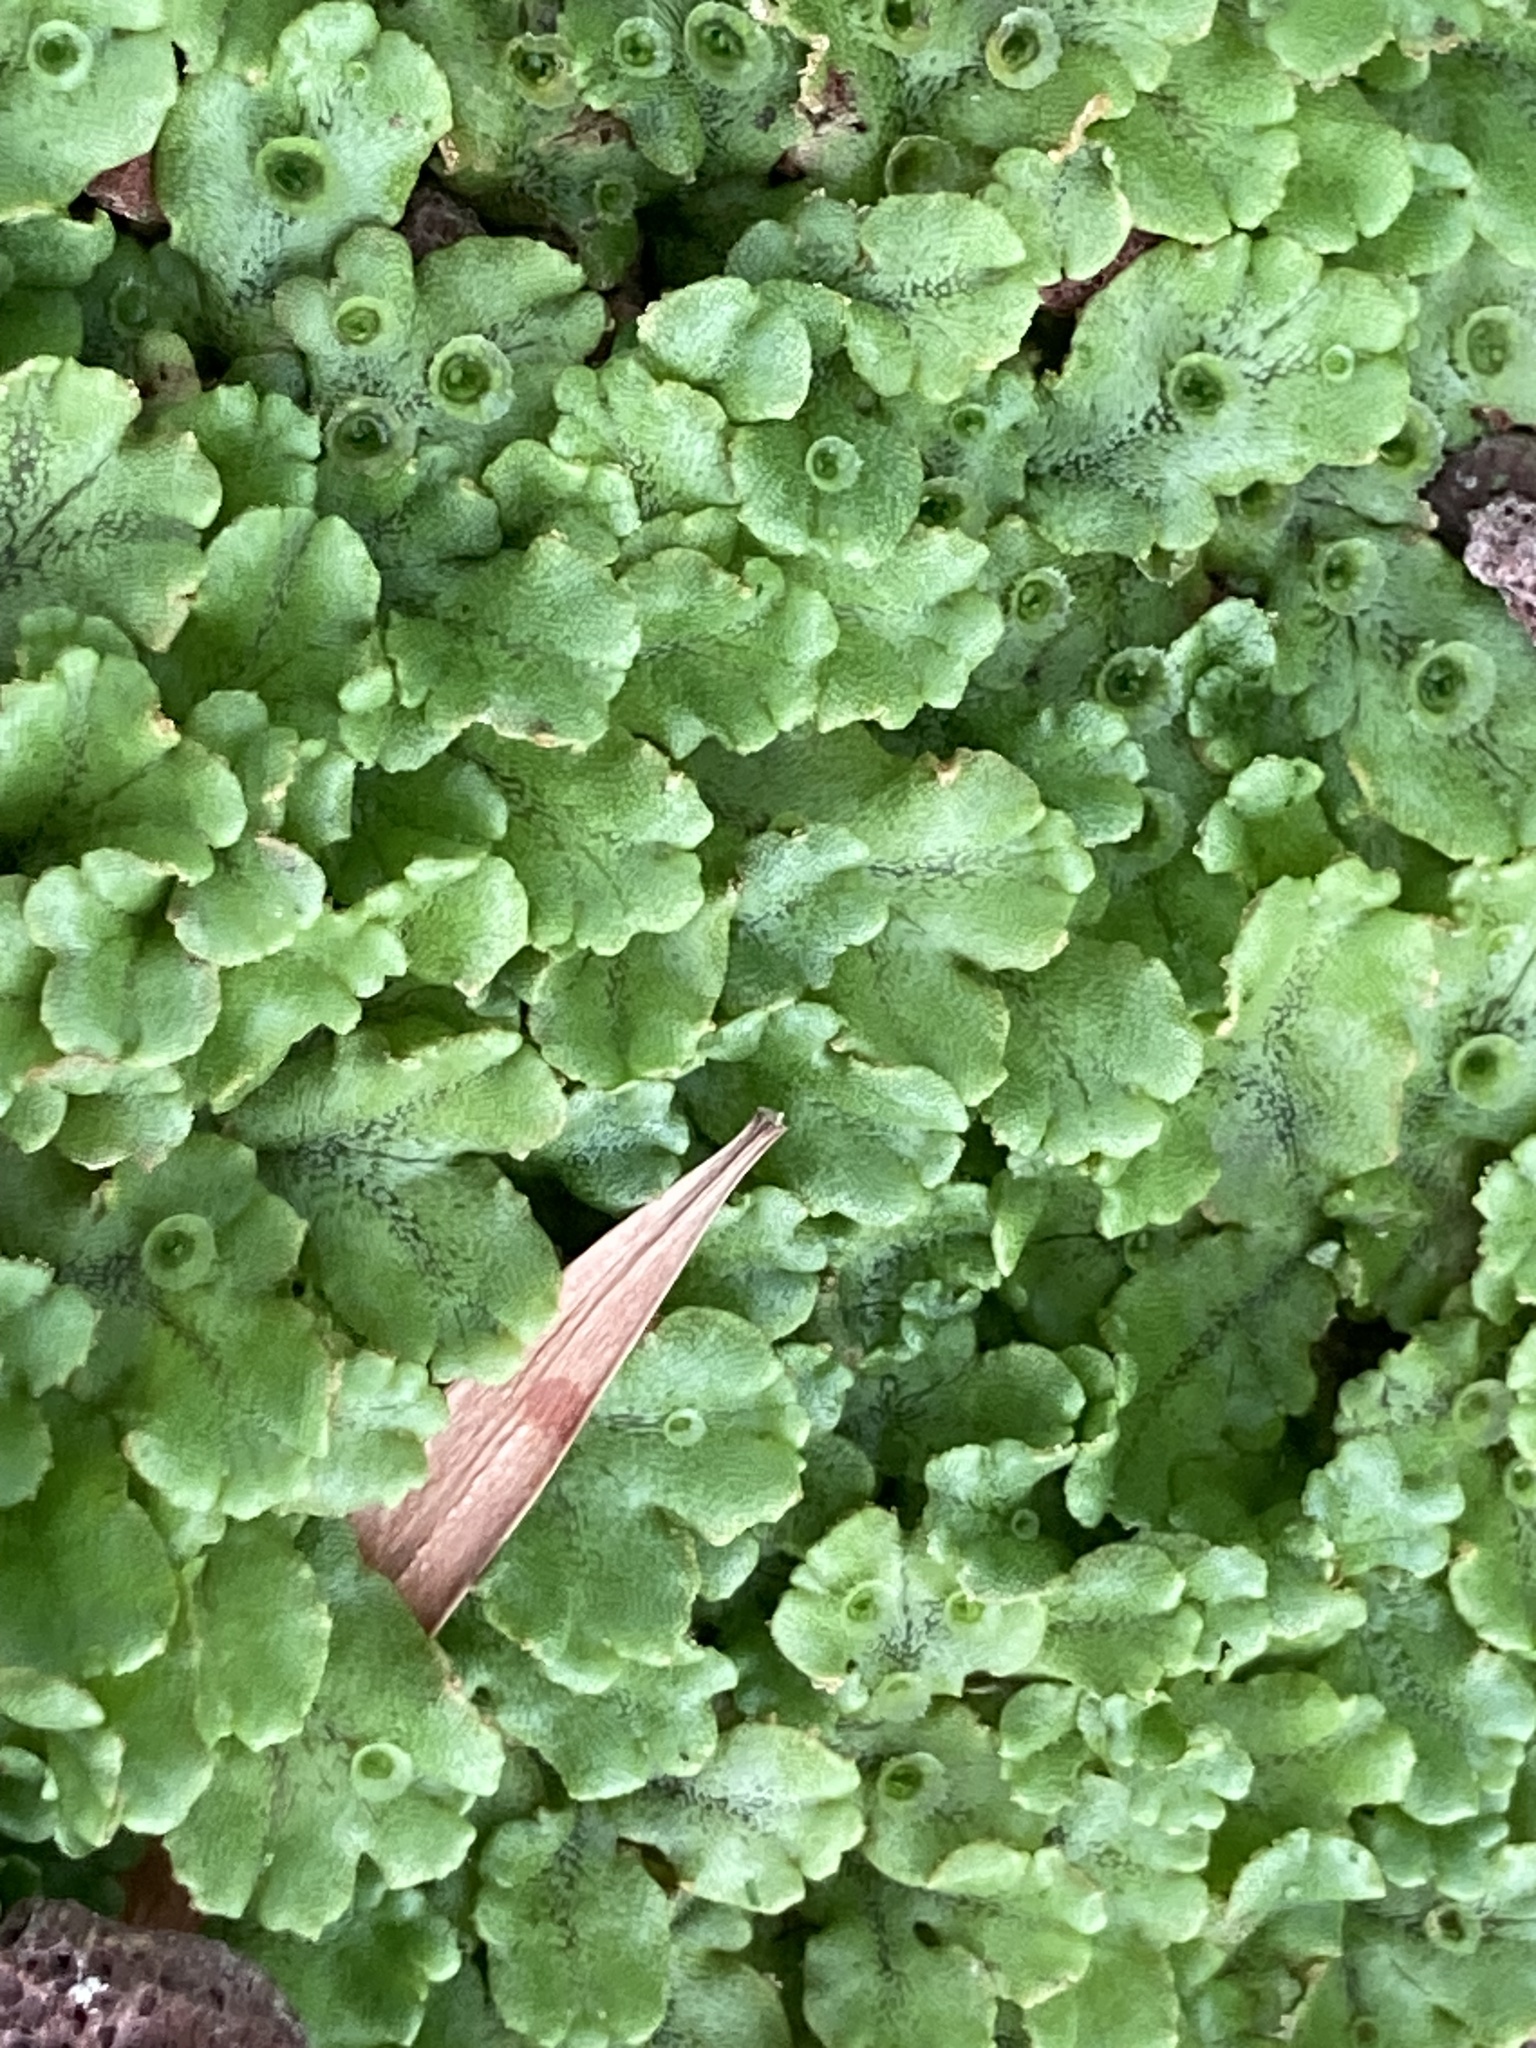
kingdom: Plantae
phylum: Marchantiophyta
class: Marchantiopsida
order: Marchantiales
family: Marchantiaceae
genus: Marchantia
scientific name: Marchantia polymorpha
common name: Common liverwort
